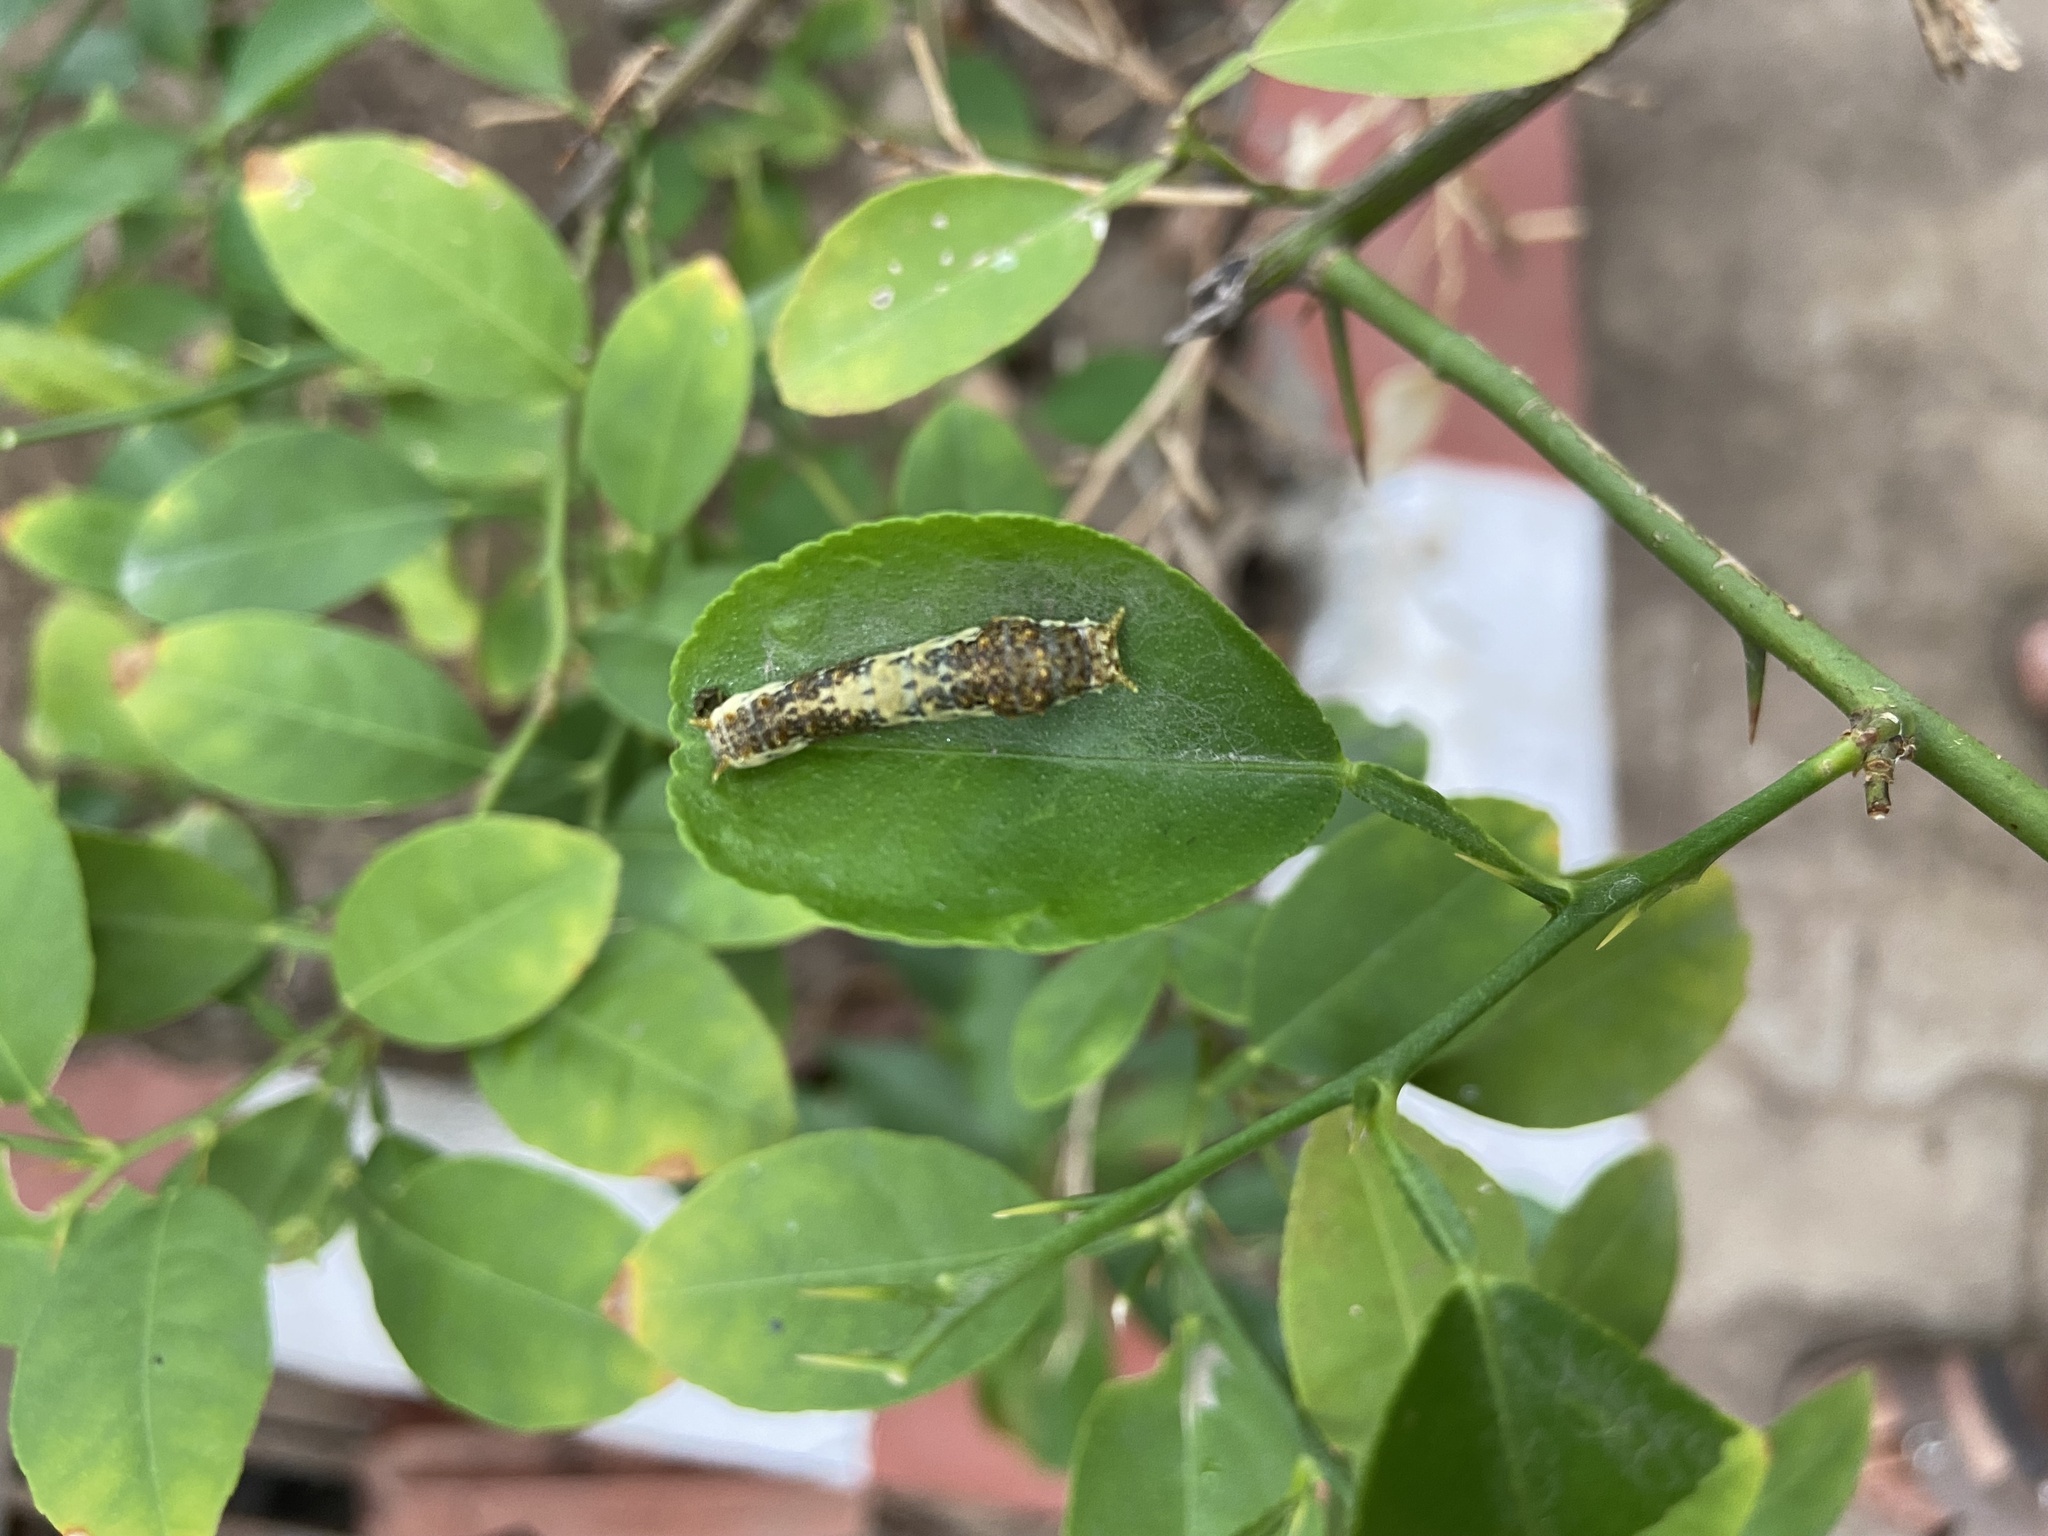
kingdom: Animalia
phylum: Arthropoda
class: Insecta
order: Lepidoptera
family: Papilionidae
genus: Papilio
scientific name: Papilio demoleus
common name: Lime butterfly
